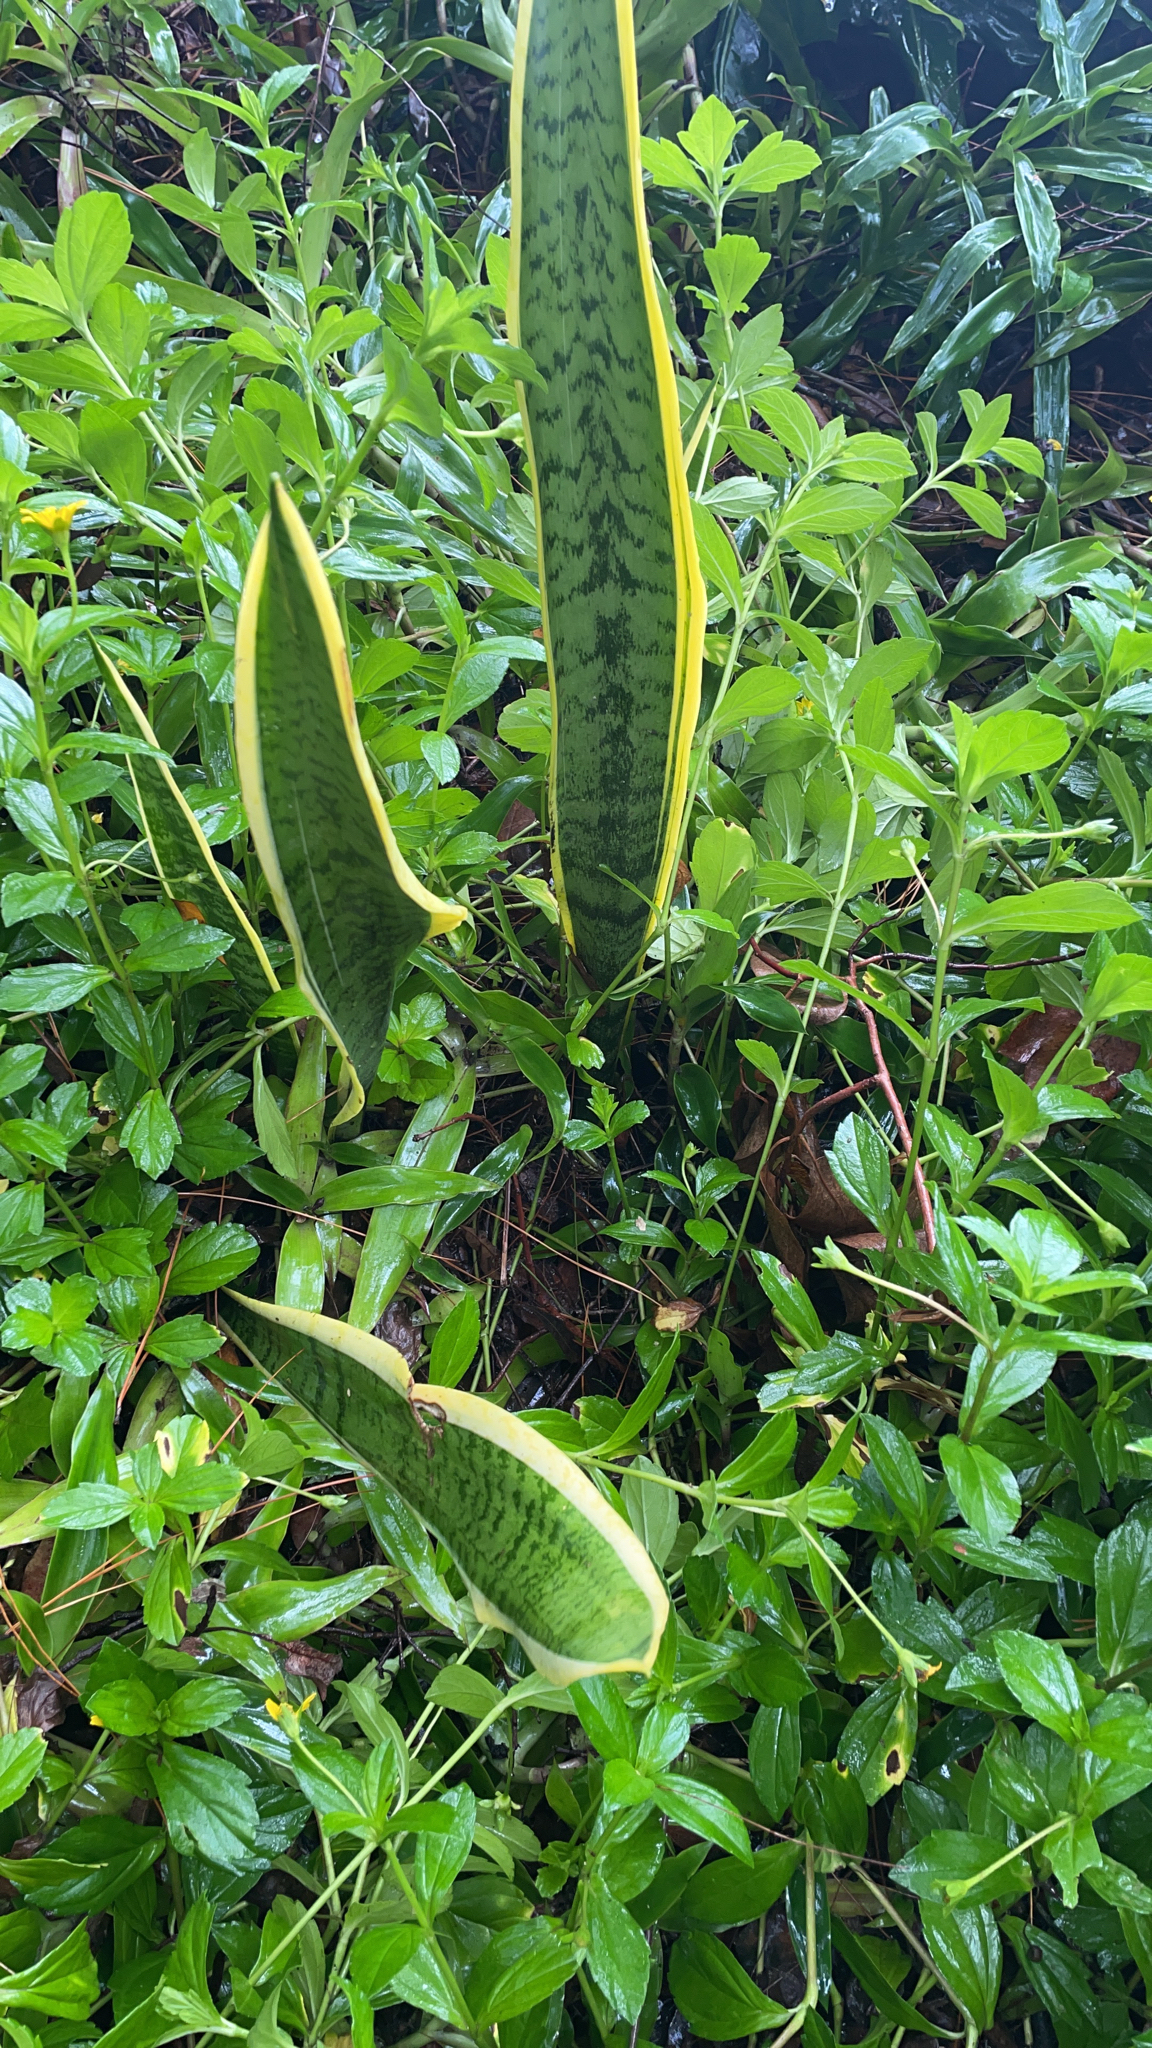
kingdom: Plantae
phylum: Tracheophyta
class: Liliopsida
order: Asparagales
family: Asparagaceae
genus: Dracaena
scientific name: Dracaena trifasciata
